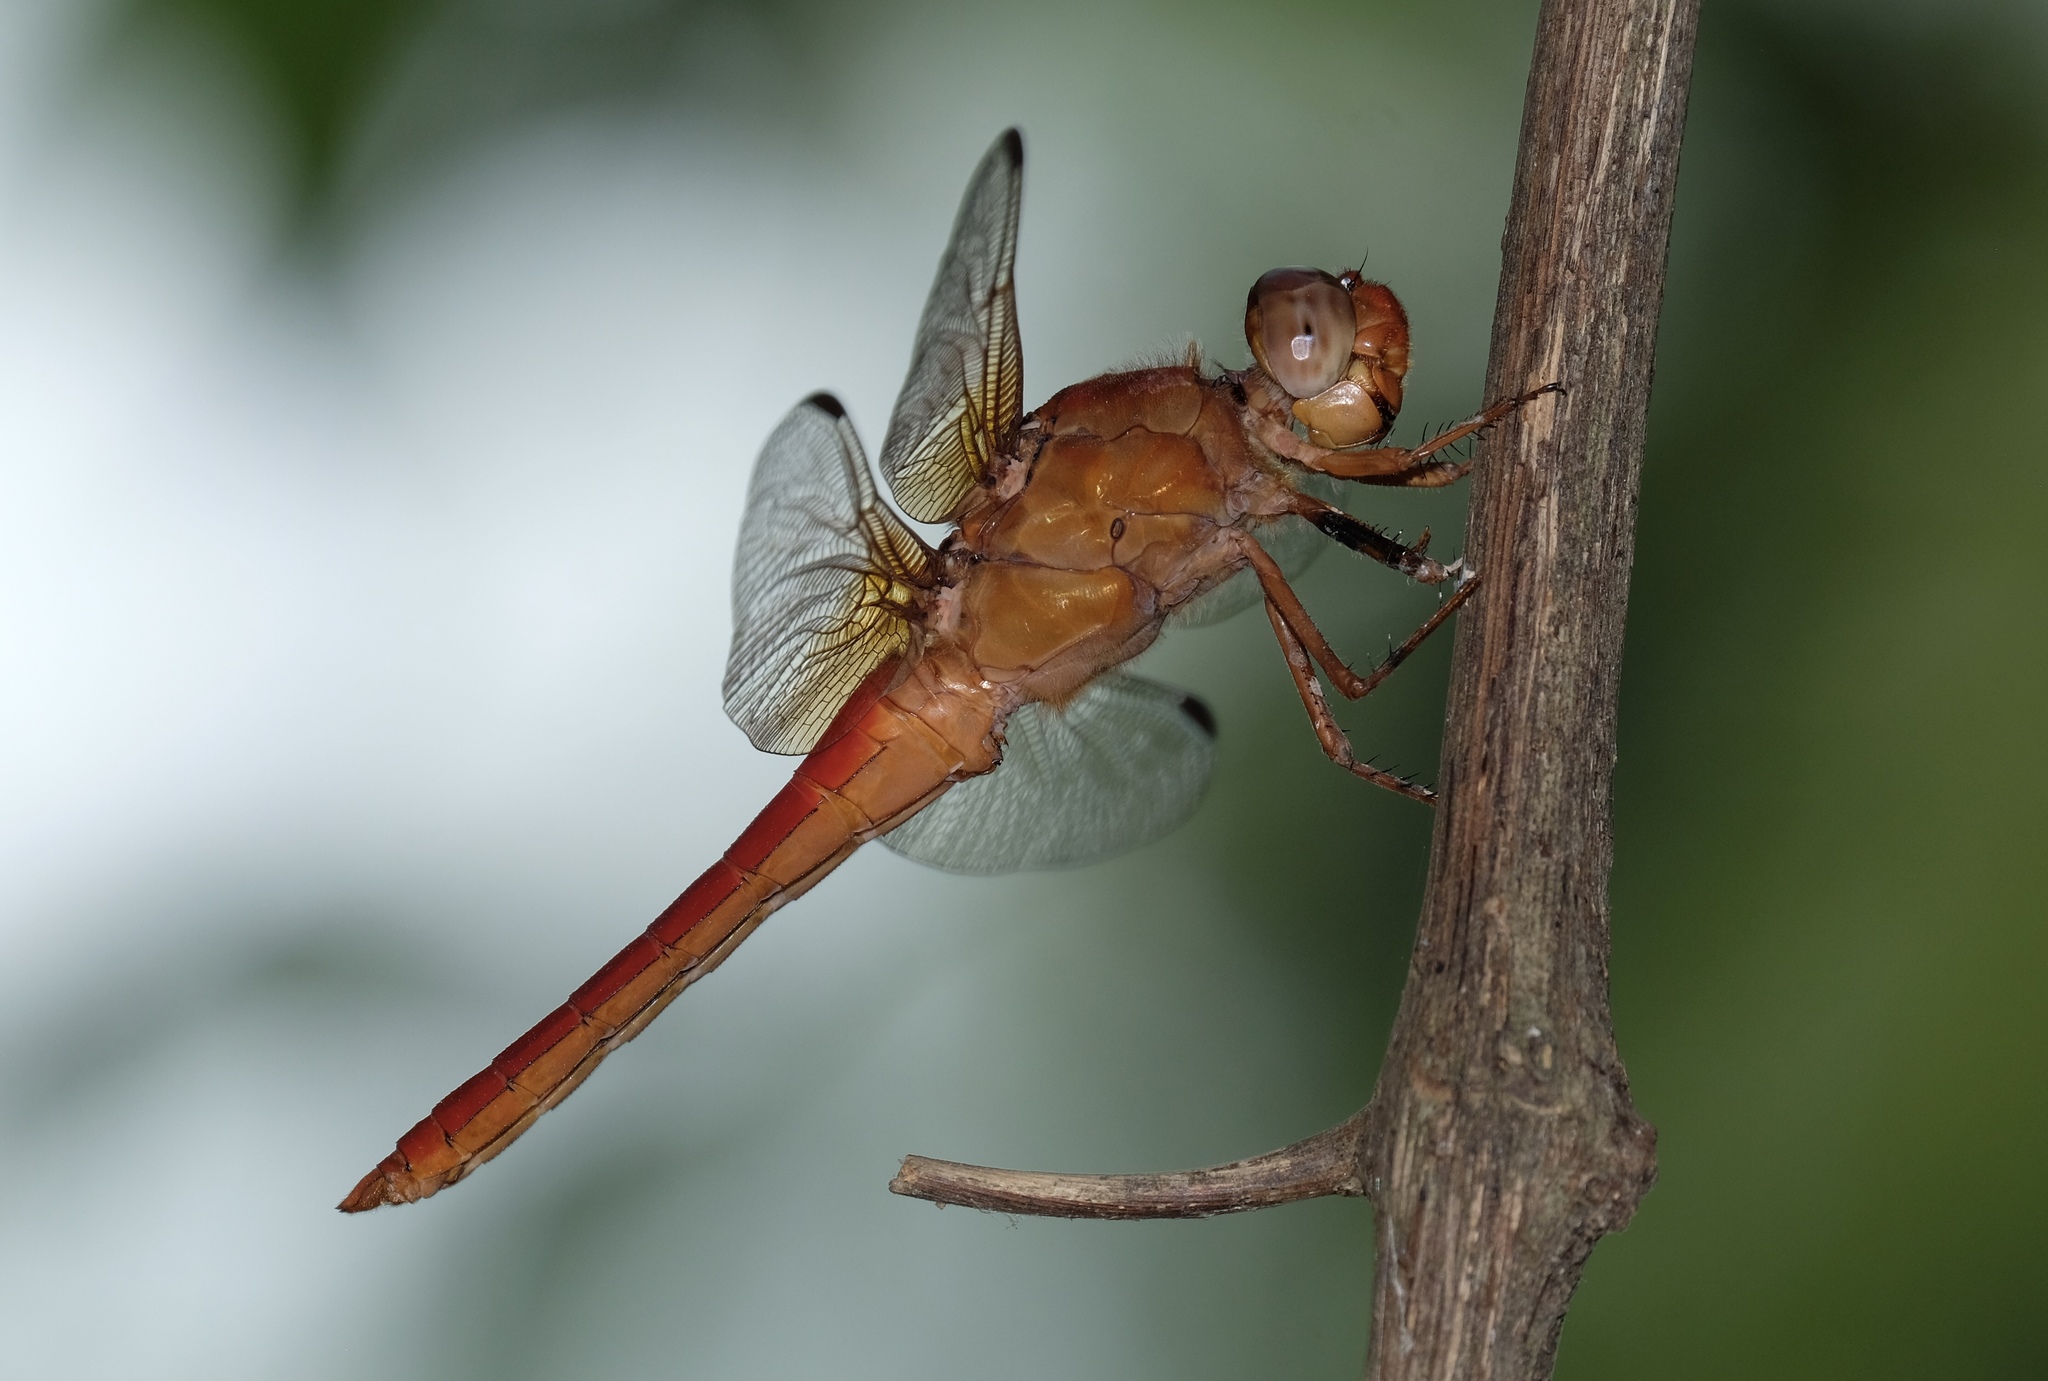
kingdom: Animalia
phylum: Arthropoda
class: Insecta
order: Odonata
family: Libellulidae
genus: Libellula
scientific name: Libellula croceipennis
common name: Neon skimmer
